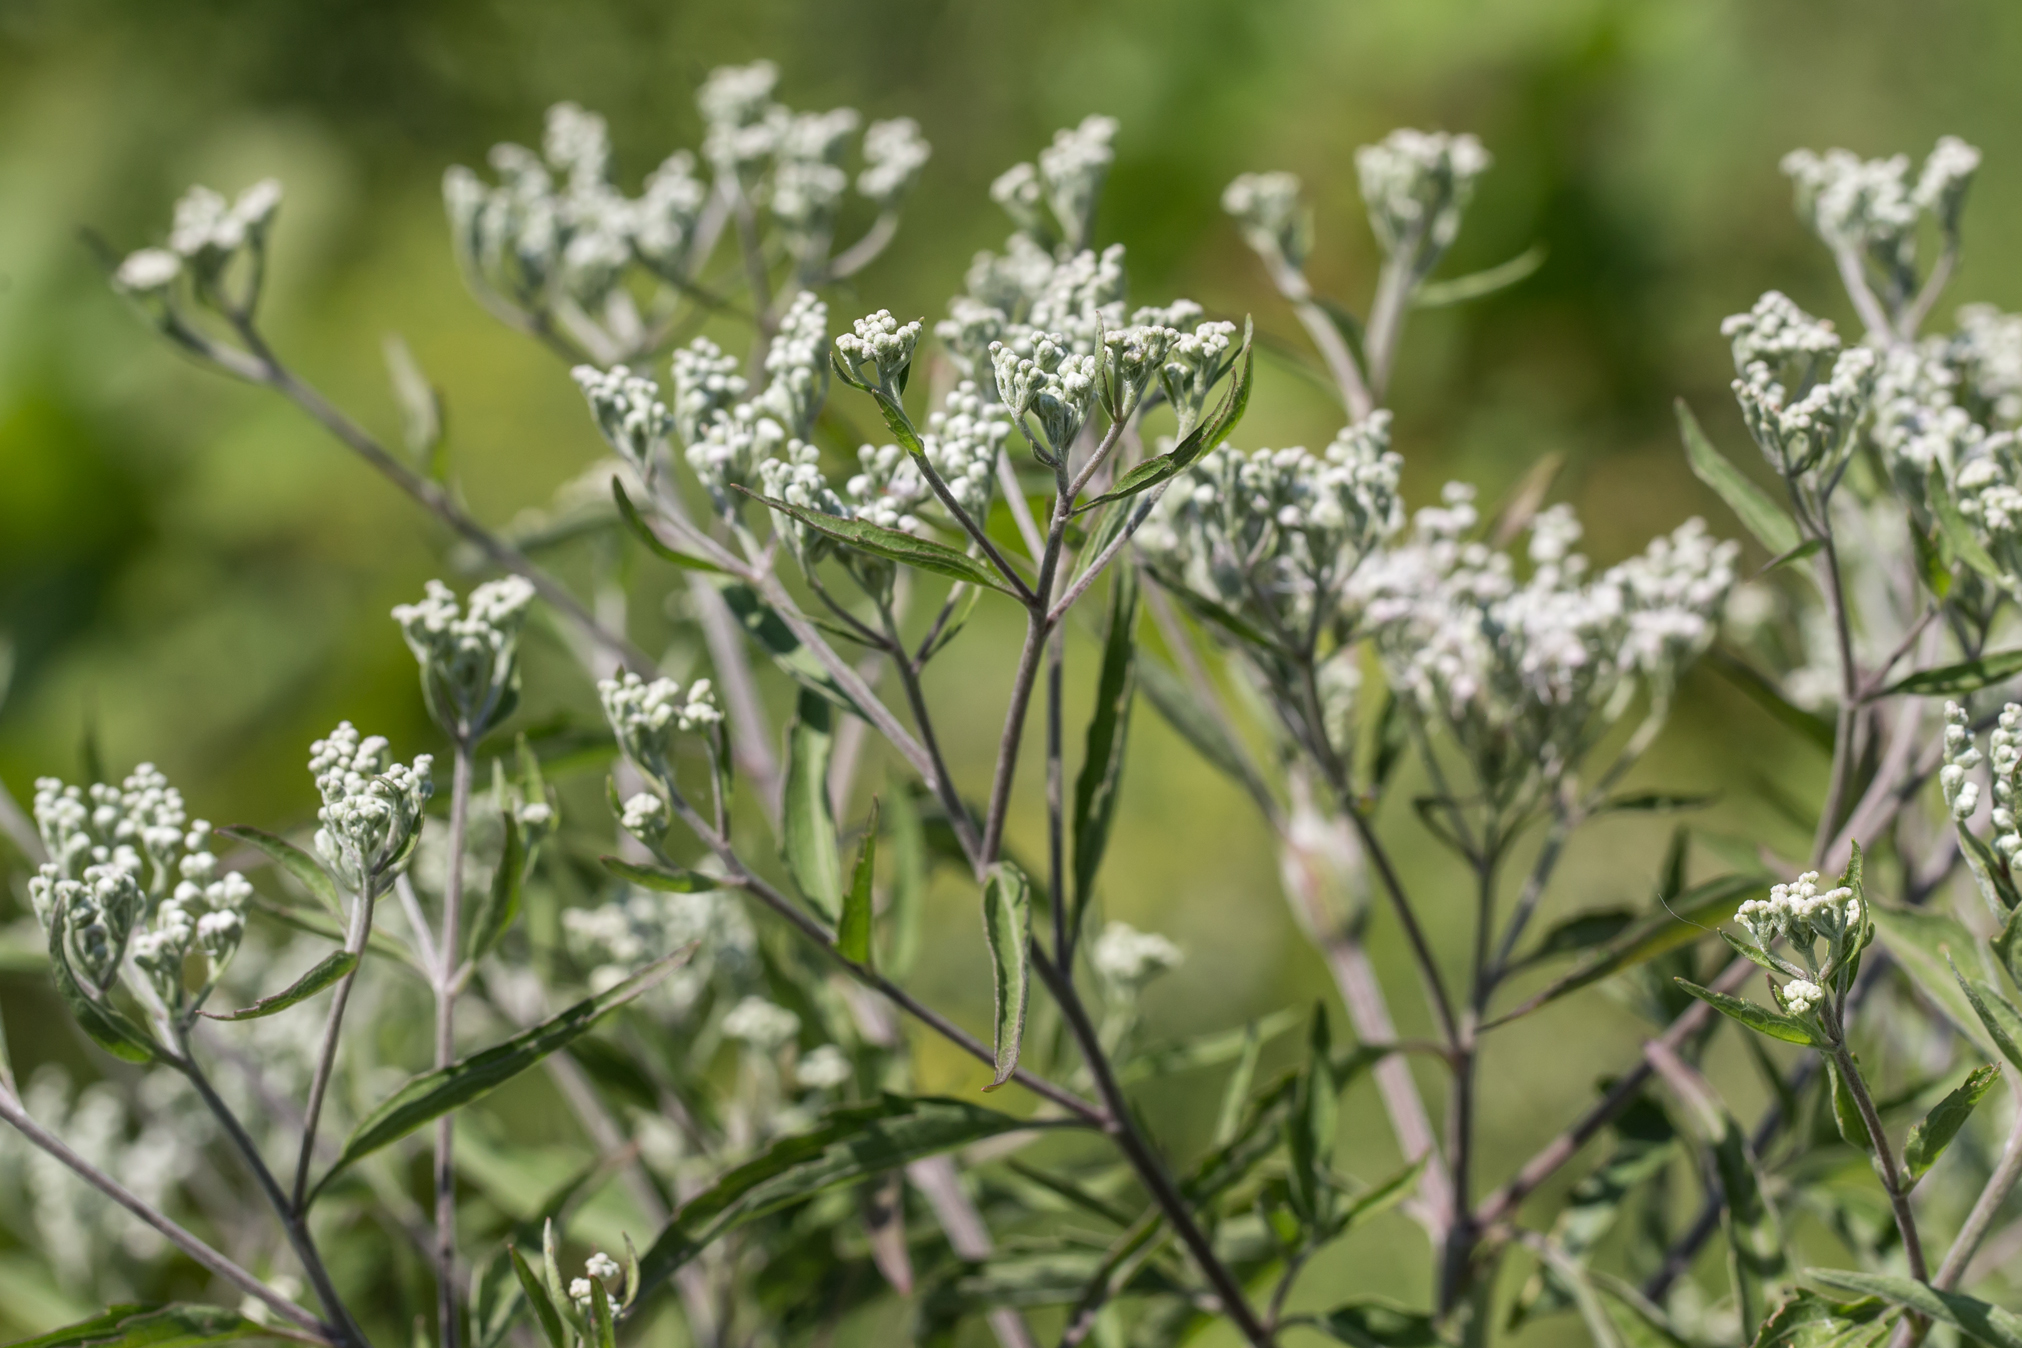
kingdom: Plantae
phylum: Tracheophyta
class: Magnoliopsida
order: Asterales
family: Asteraceae
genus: Eupatorium
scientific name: Eupatorium serotinum
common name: Late boneset
